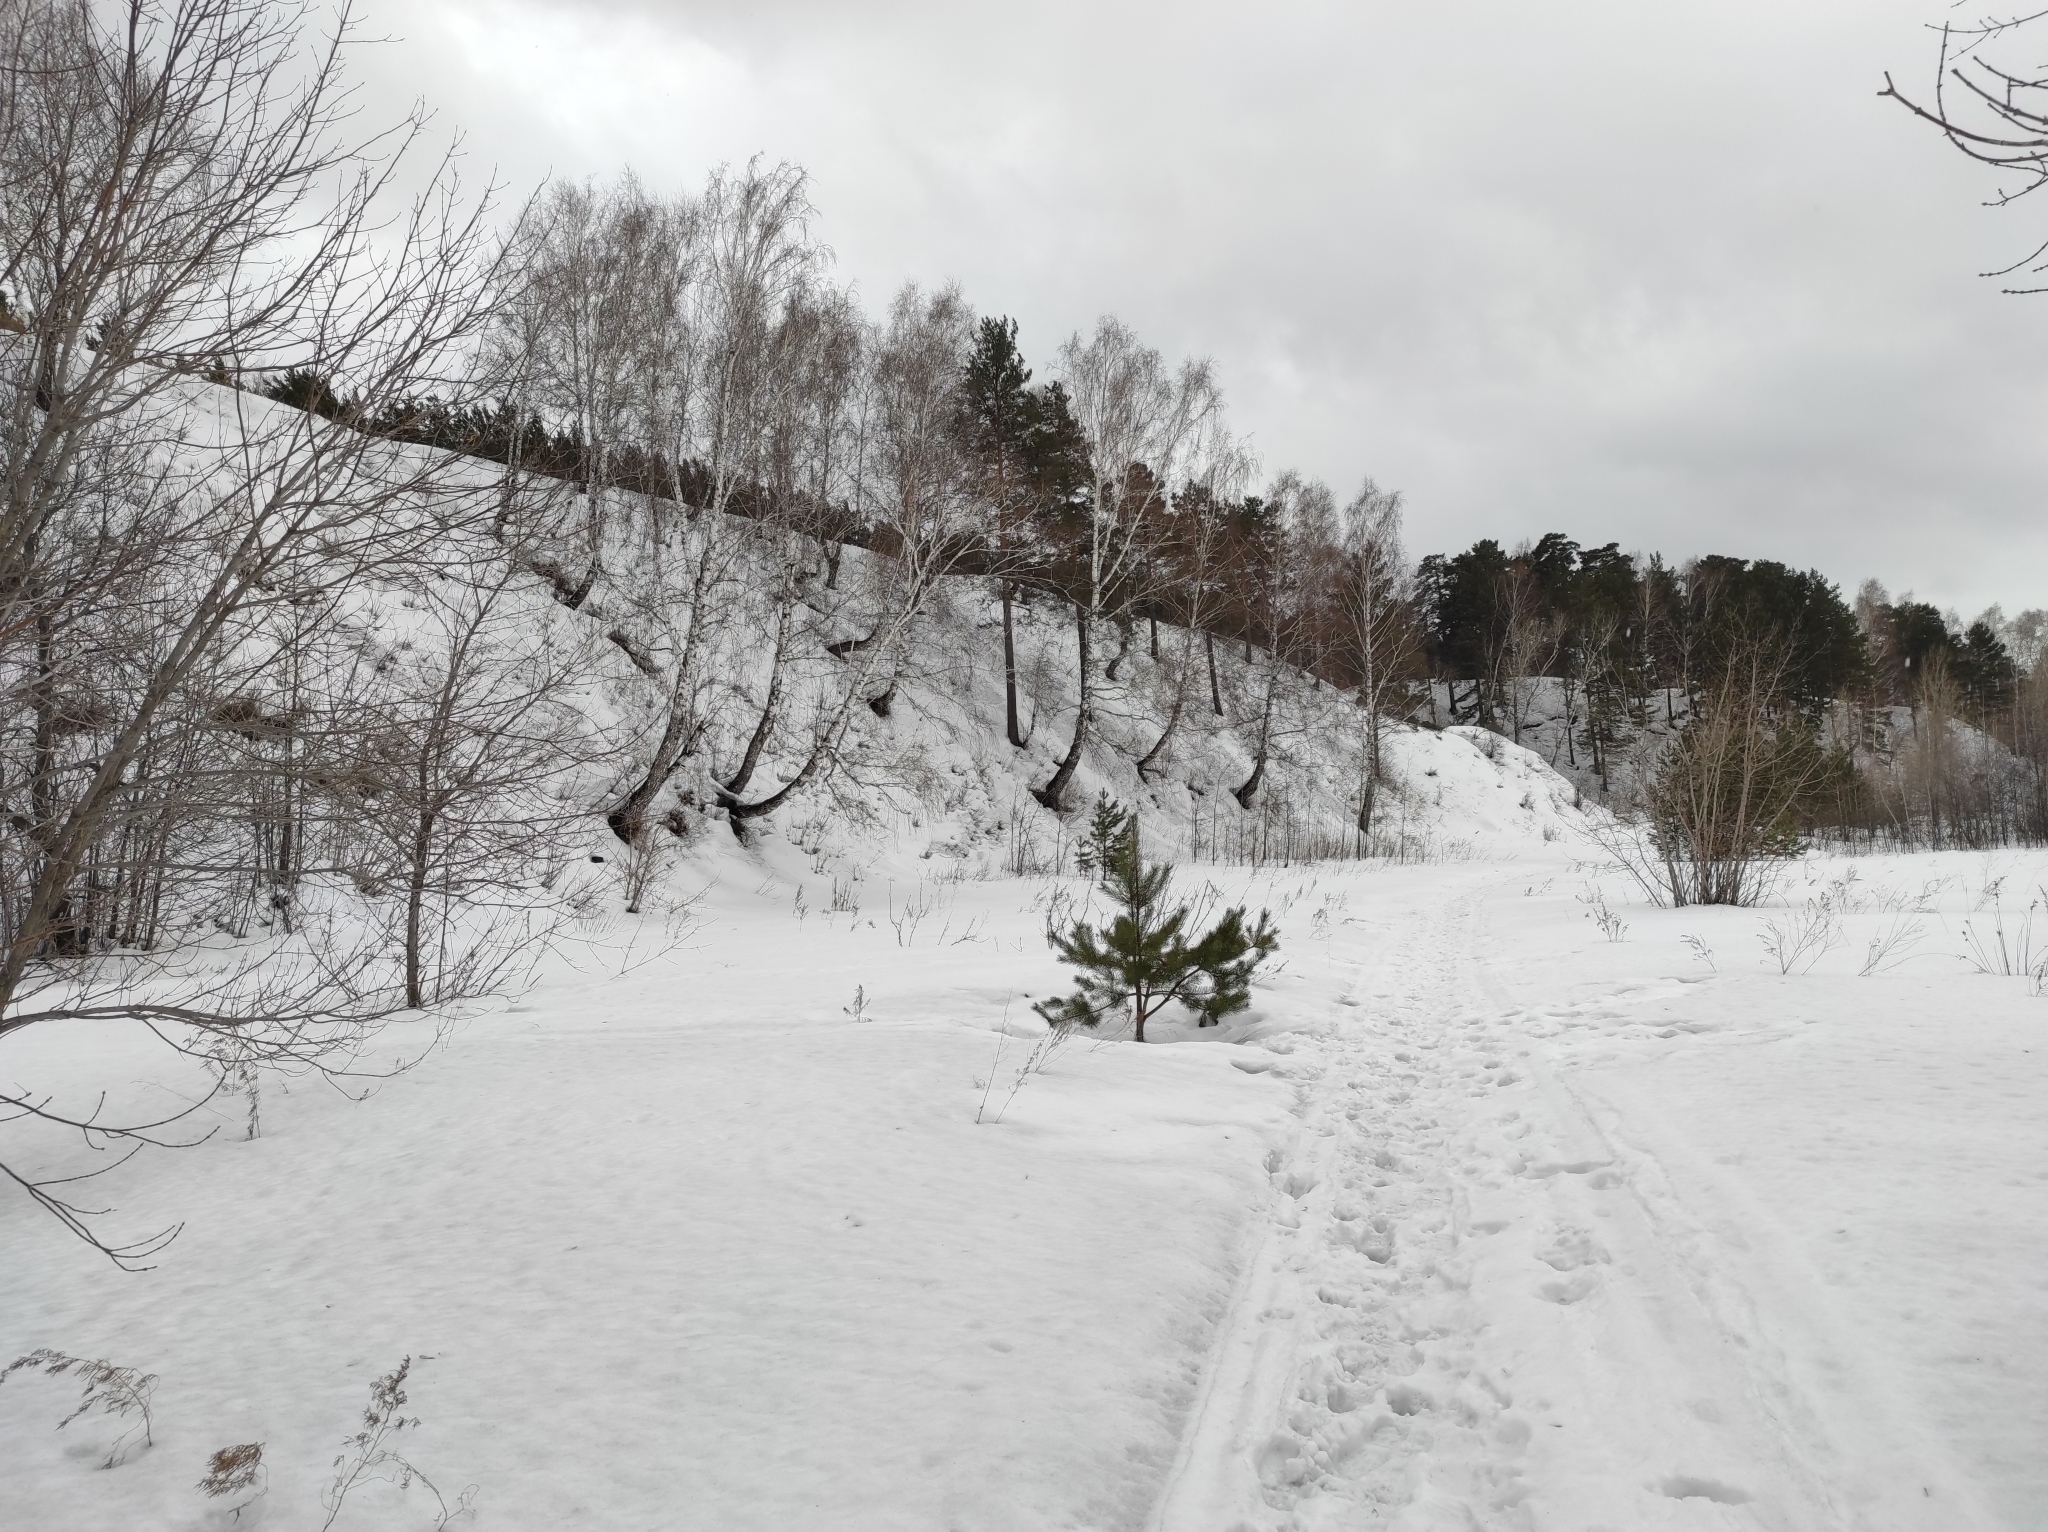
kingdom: Plantae
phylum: Tracheophyta
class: Magnoliopsida
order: Fagales
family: Betulaceae
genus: Betula
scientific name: Betula pendula
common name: Silver birch
